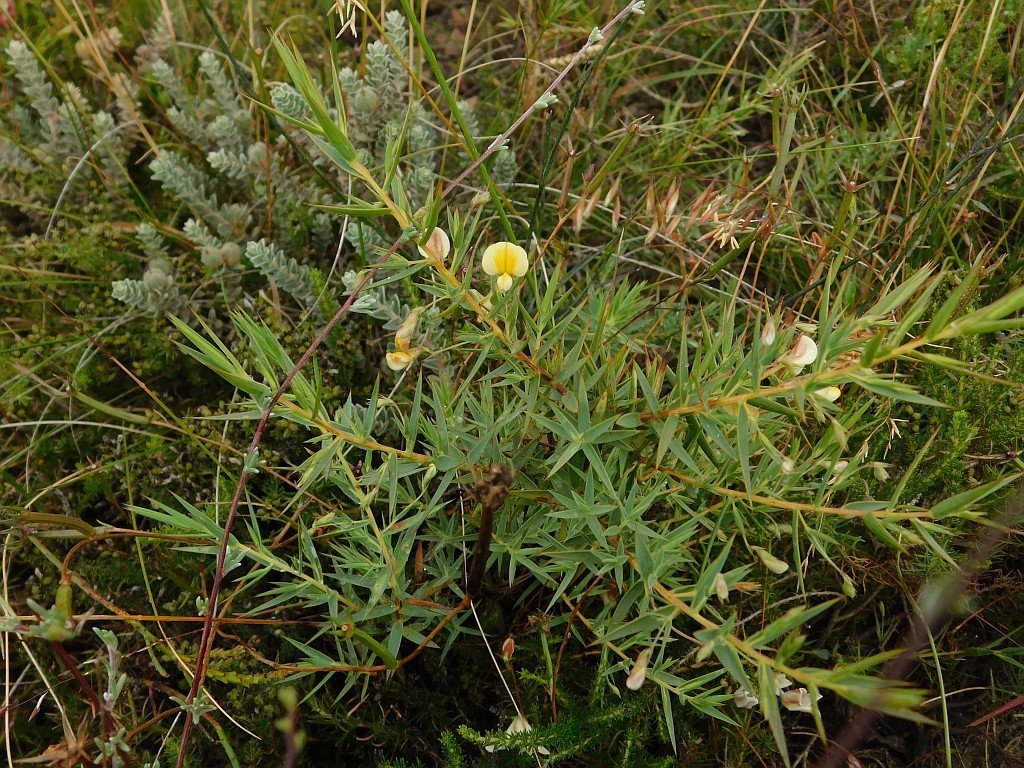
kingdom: Plantae
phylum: Tracheophyta
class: Magnoliopsida
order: Fabales
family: Fabaceae
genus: Aspalathus
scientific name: Aspalathus alpestris
